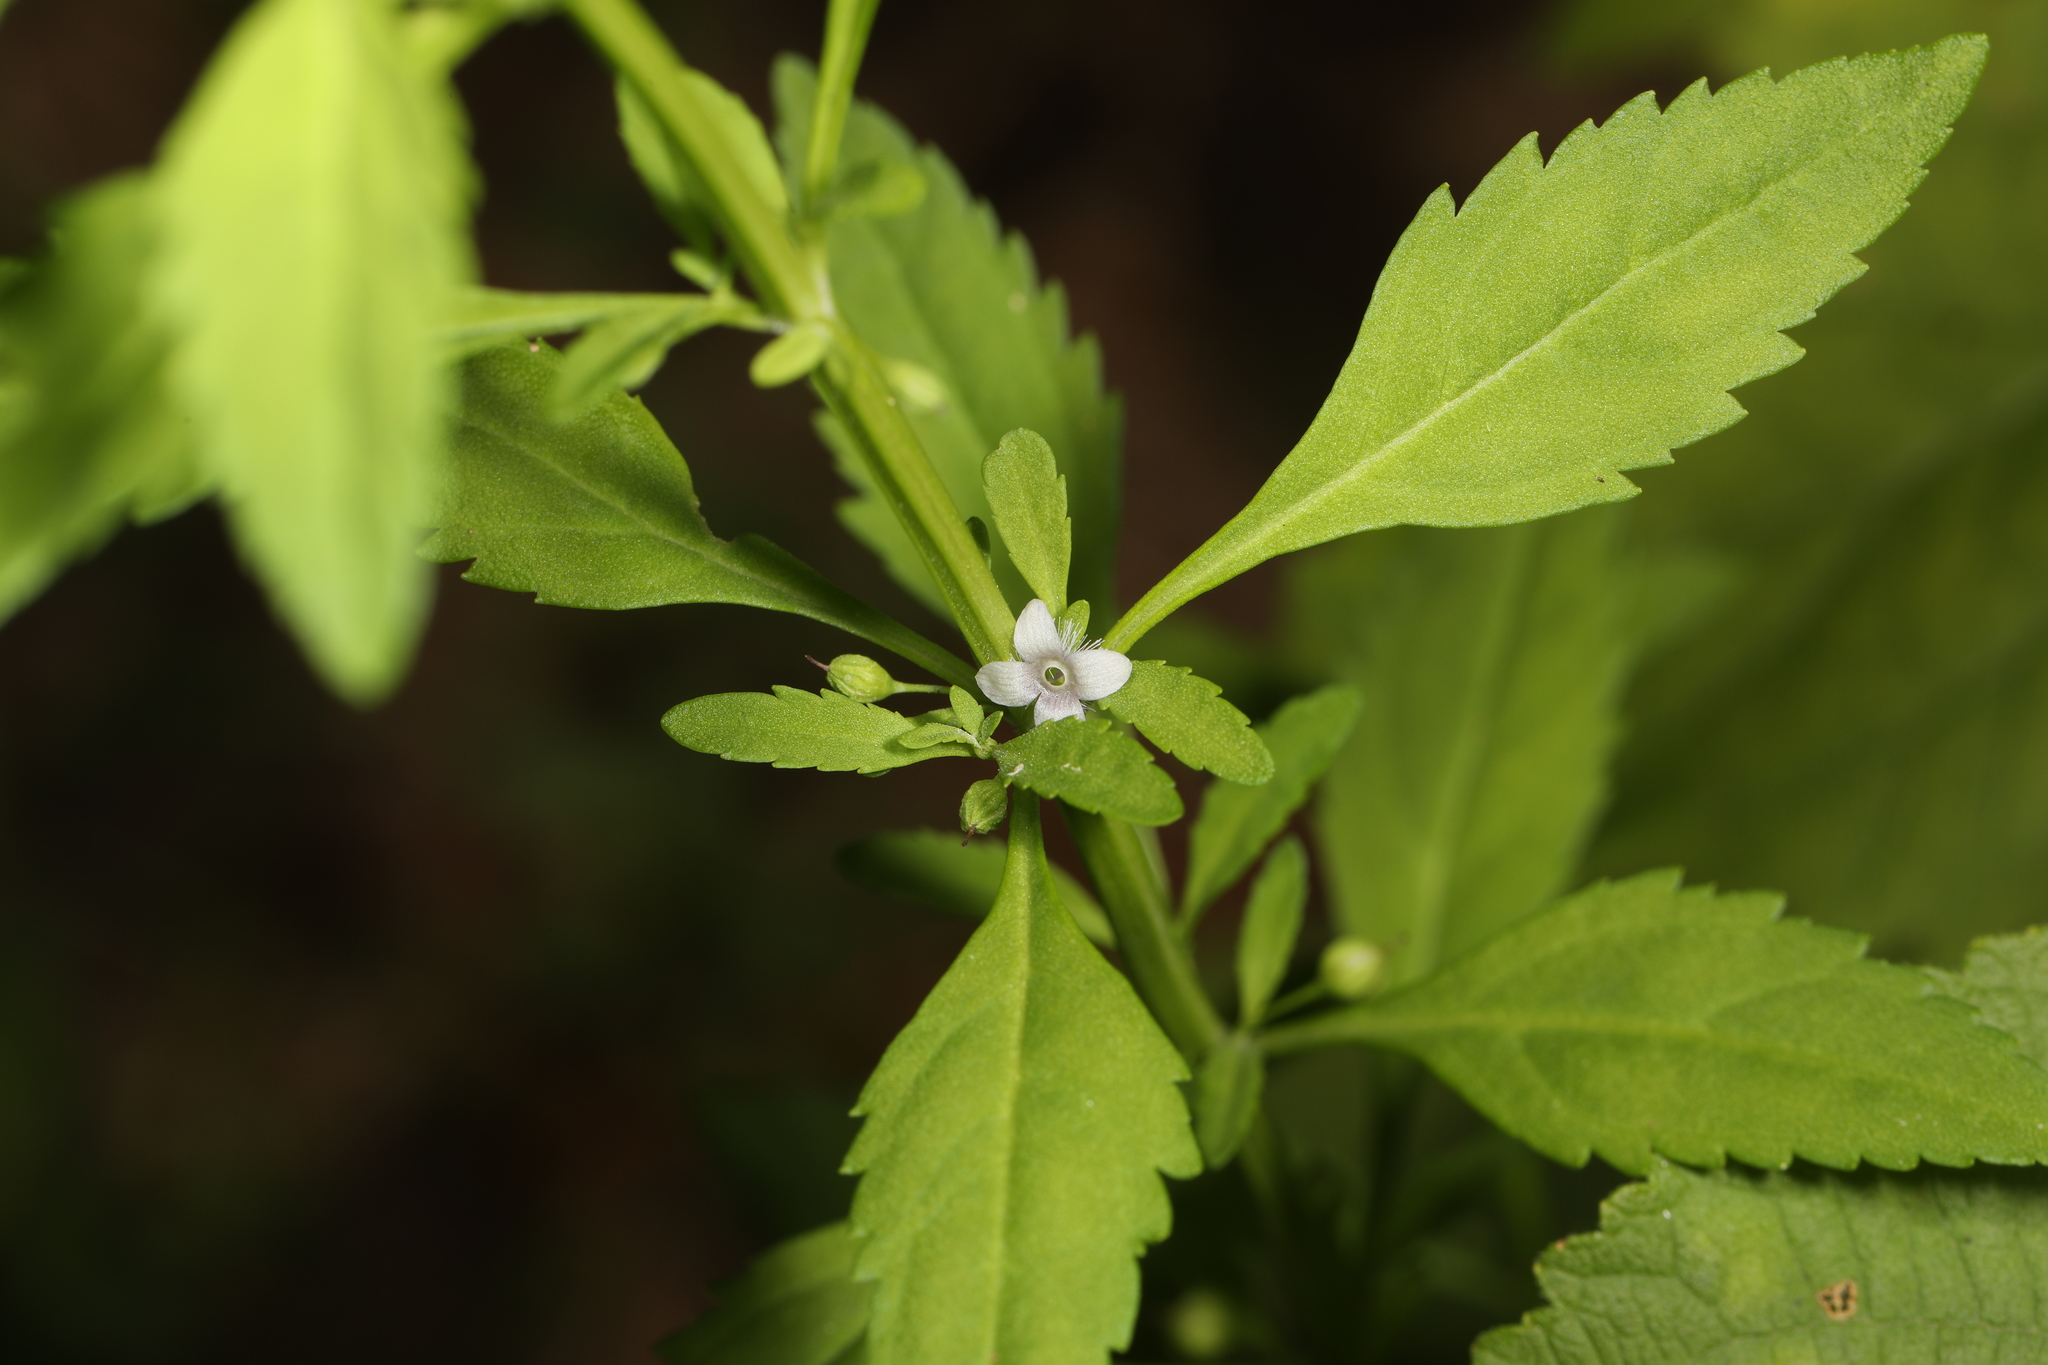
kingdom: Plantae
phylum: Tracheophyta
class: Magnoliopsida
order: Lamiales
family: Plantaginaceae
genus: Scoparia
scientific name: Scoparia dulcis
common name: Scoparia-weed
